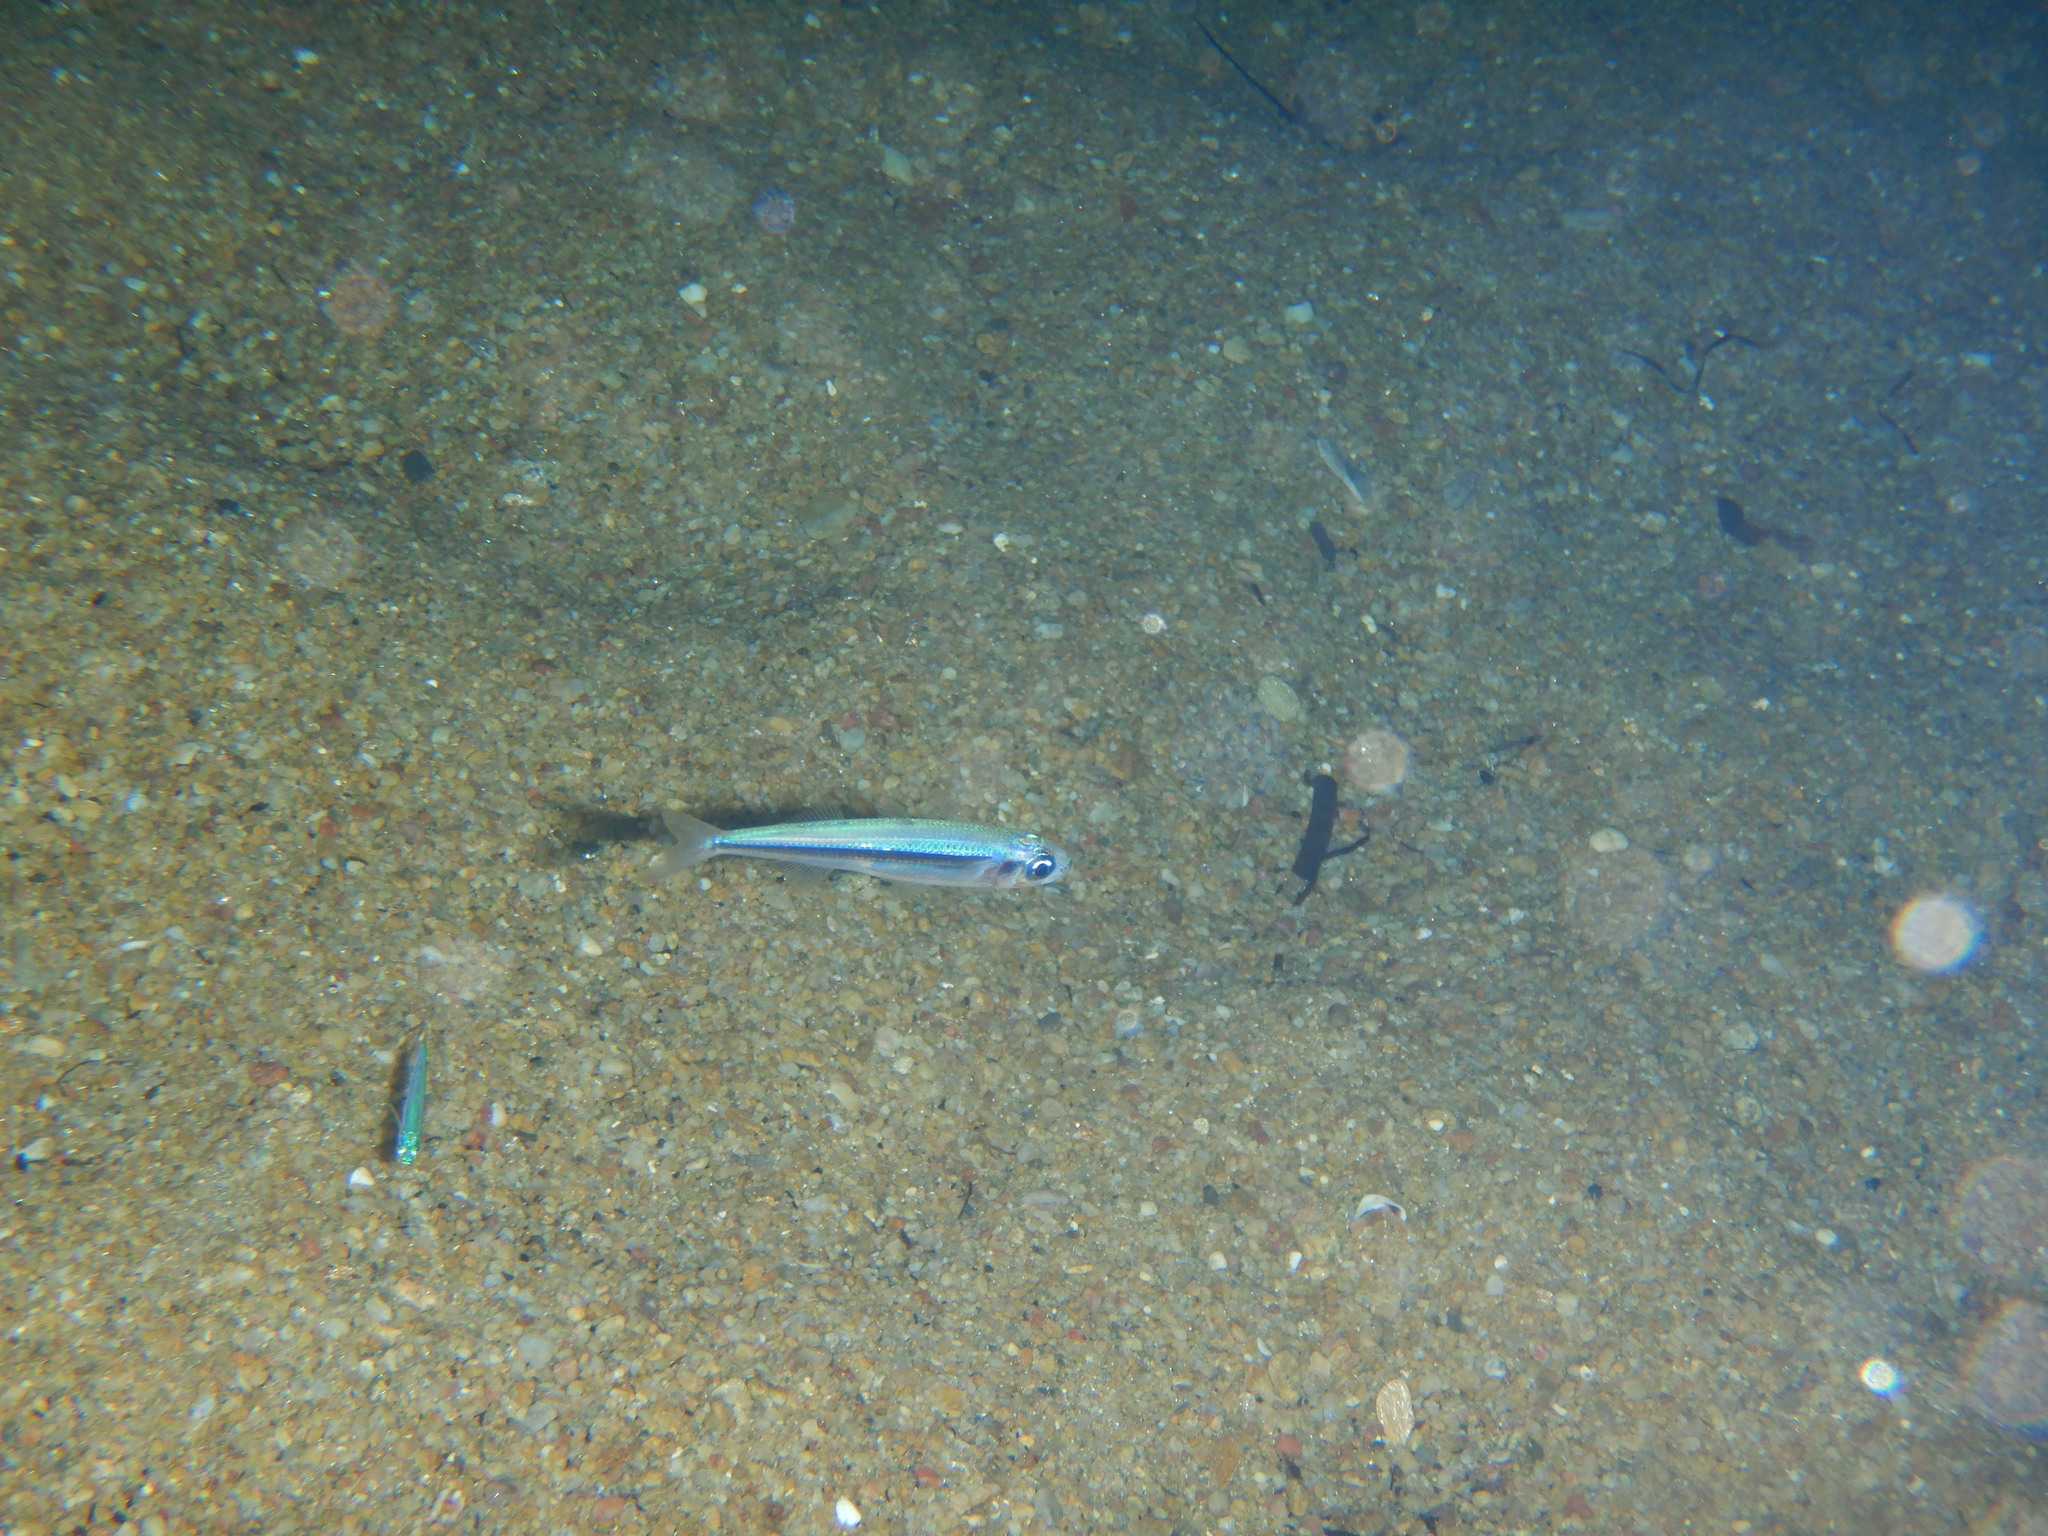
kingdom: Animalia
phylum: Chordata
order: Atheriniformes
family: Atherinidae
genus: Atherina
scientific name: Atherina boyeri
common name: Big-scale sand smelt
